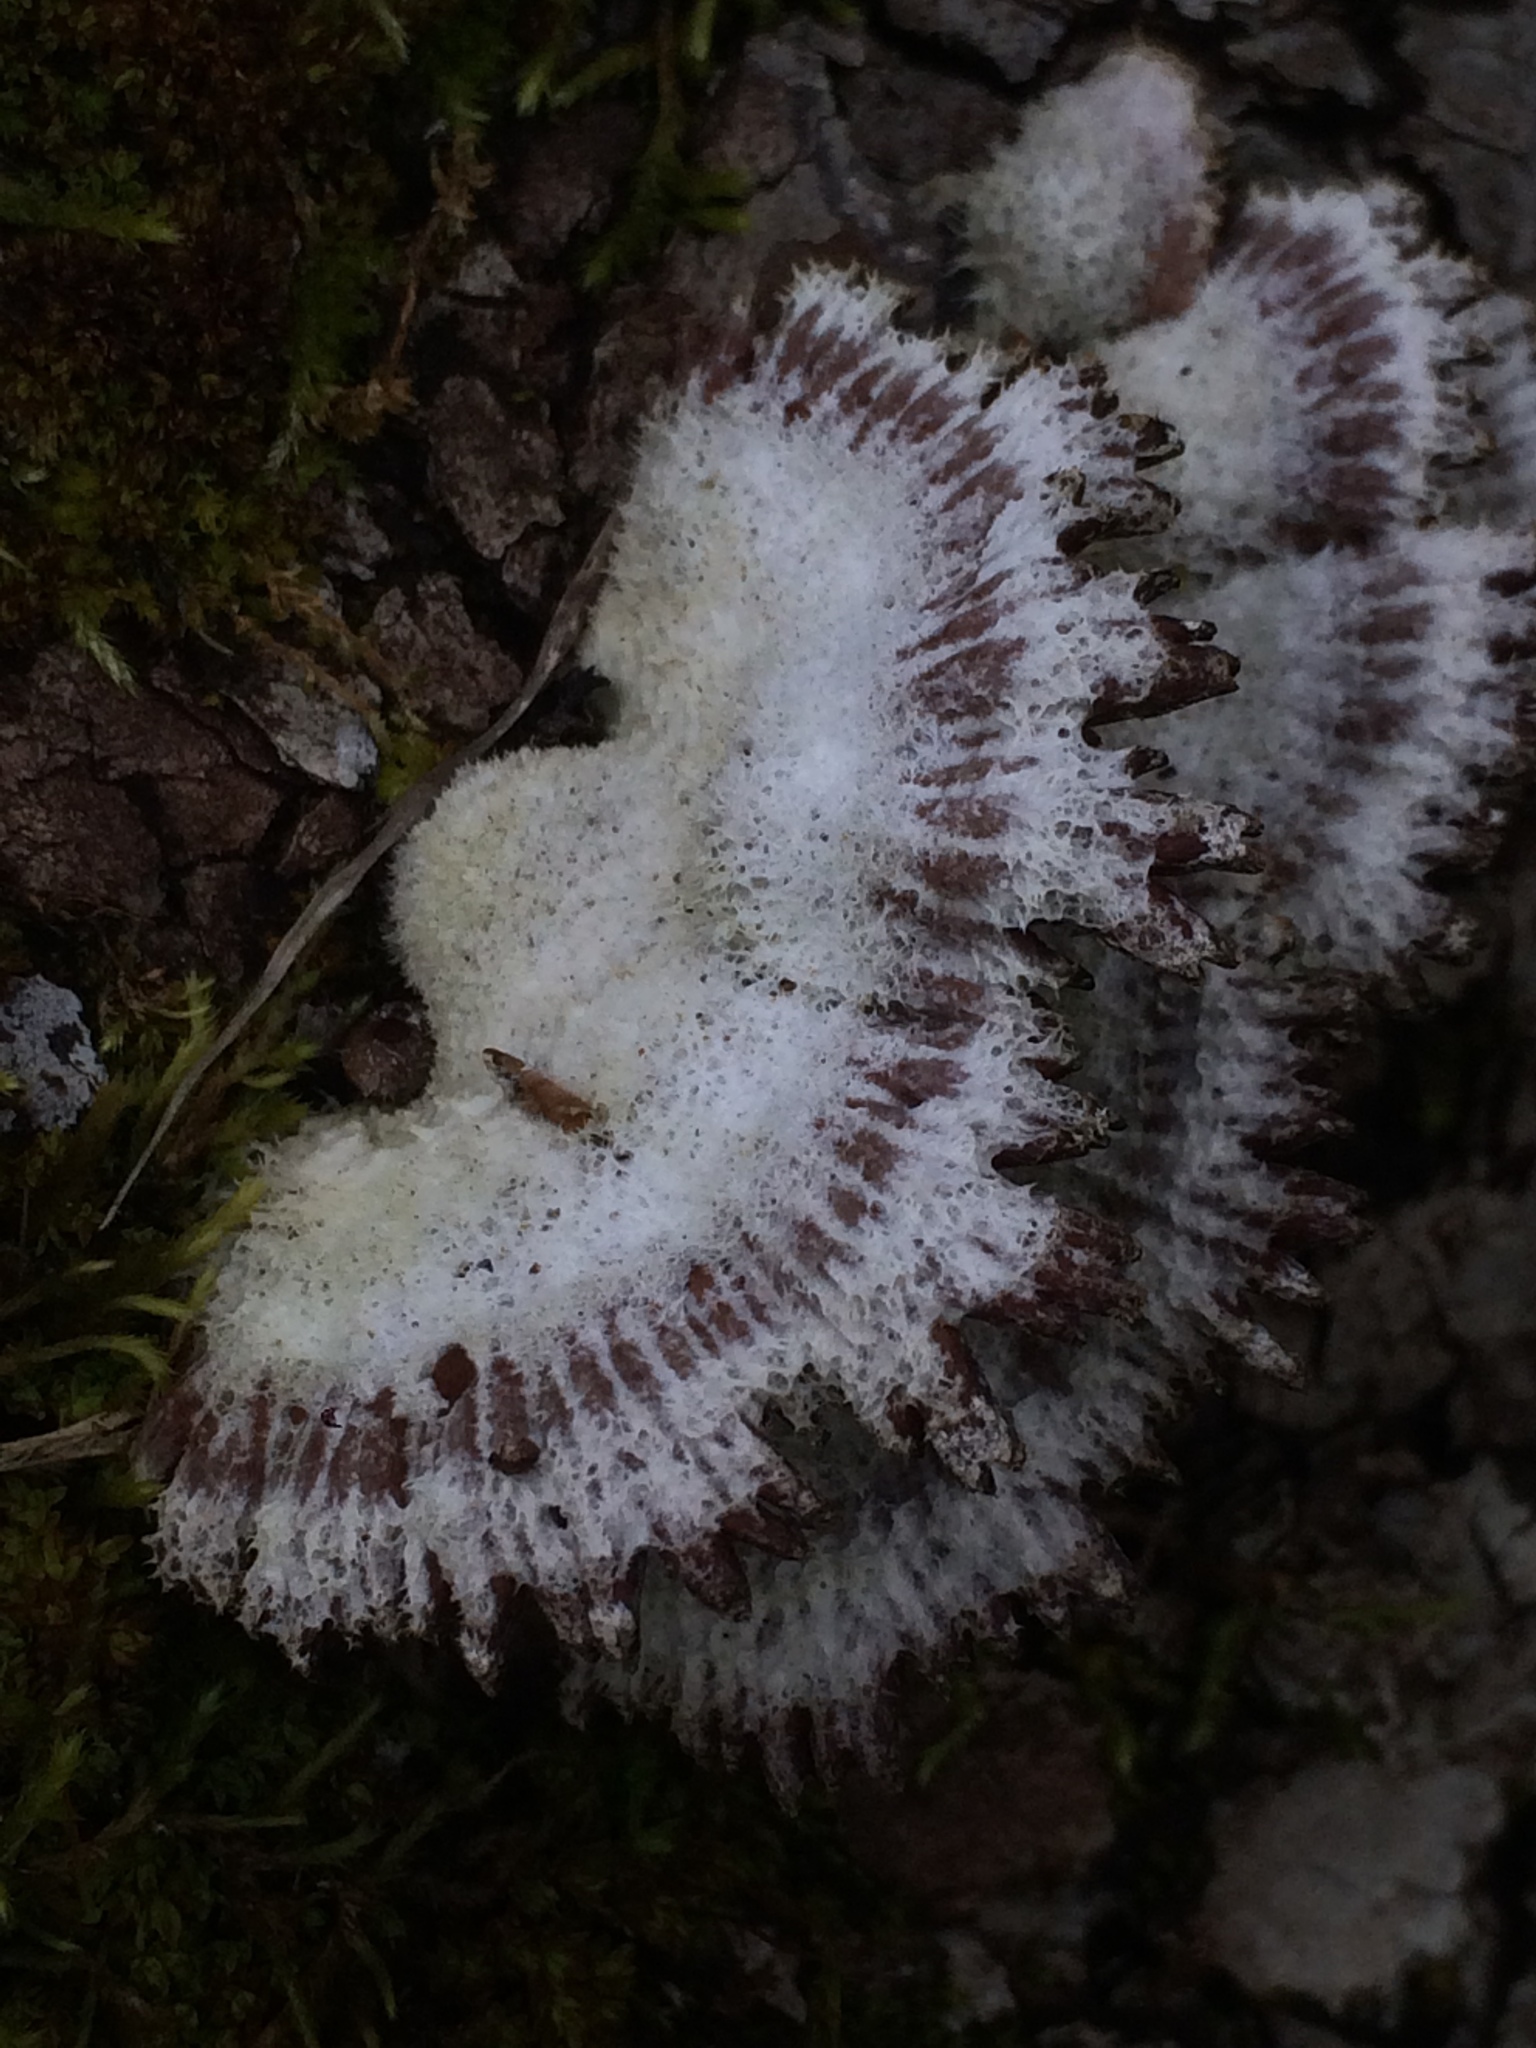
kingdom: Fungi
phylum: Basidiomycota
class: Agaricomycetes
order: Agaricales
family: Schizophyllaceae
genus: Schizophyllum
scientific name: Schizophyllum commune
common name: Common porecrust
